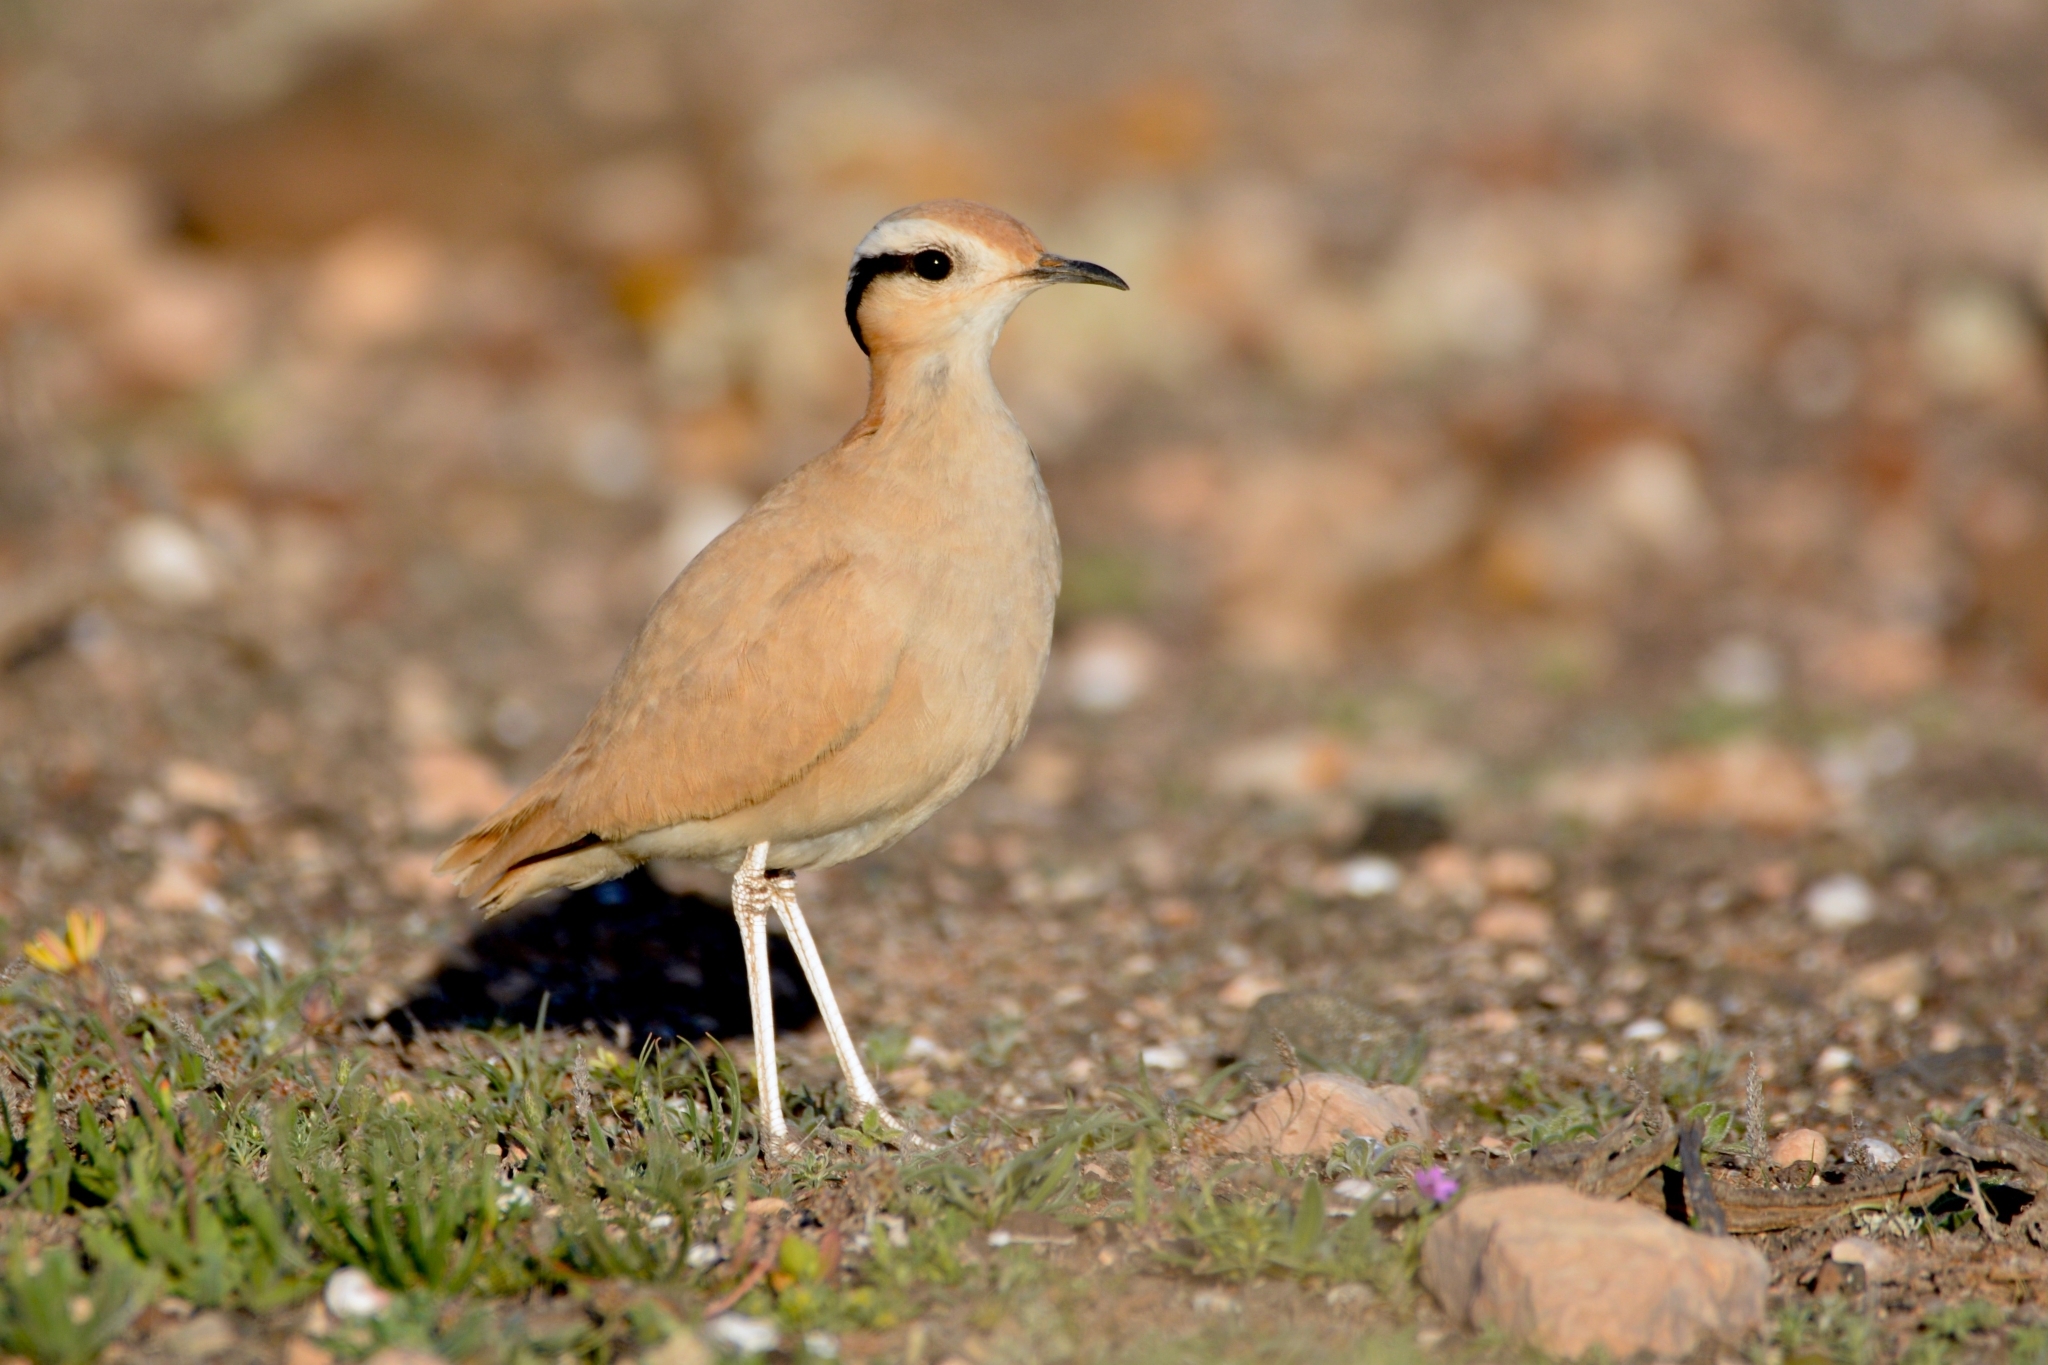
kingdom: Animalia
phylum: Chordata
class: Aves
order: Charadriiformes
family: Glareolidae
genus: Cursorius
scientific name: Cursorius cursor
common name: Cream-colored courser
